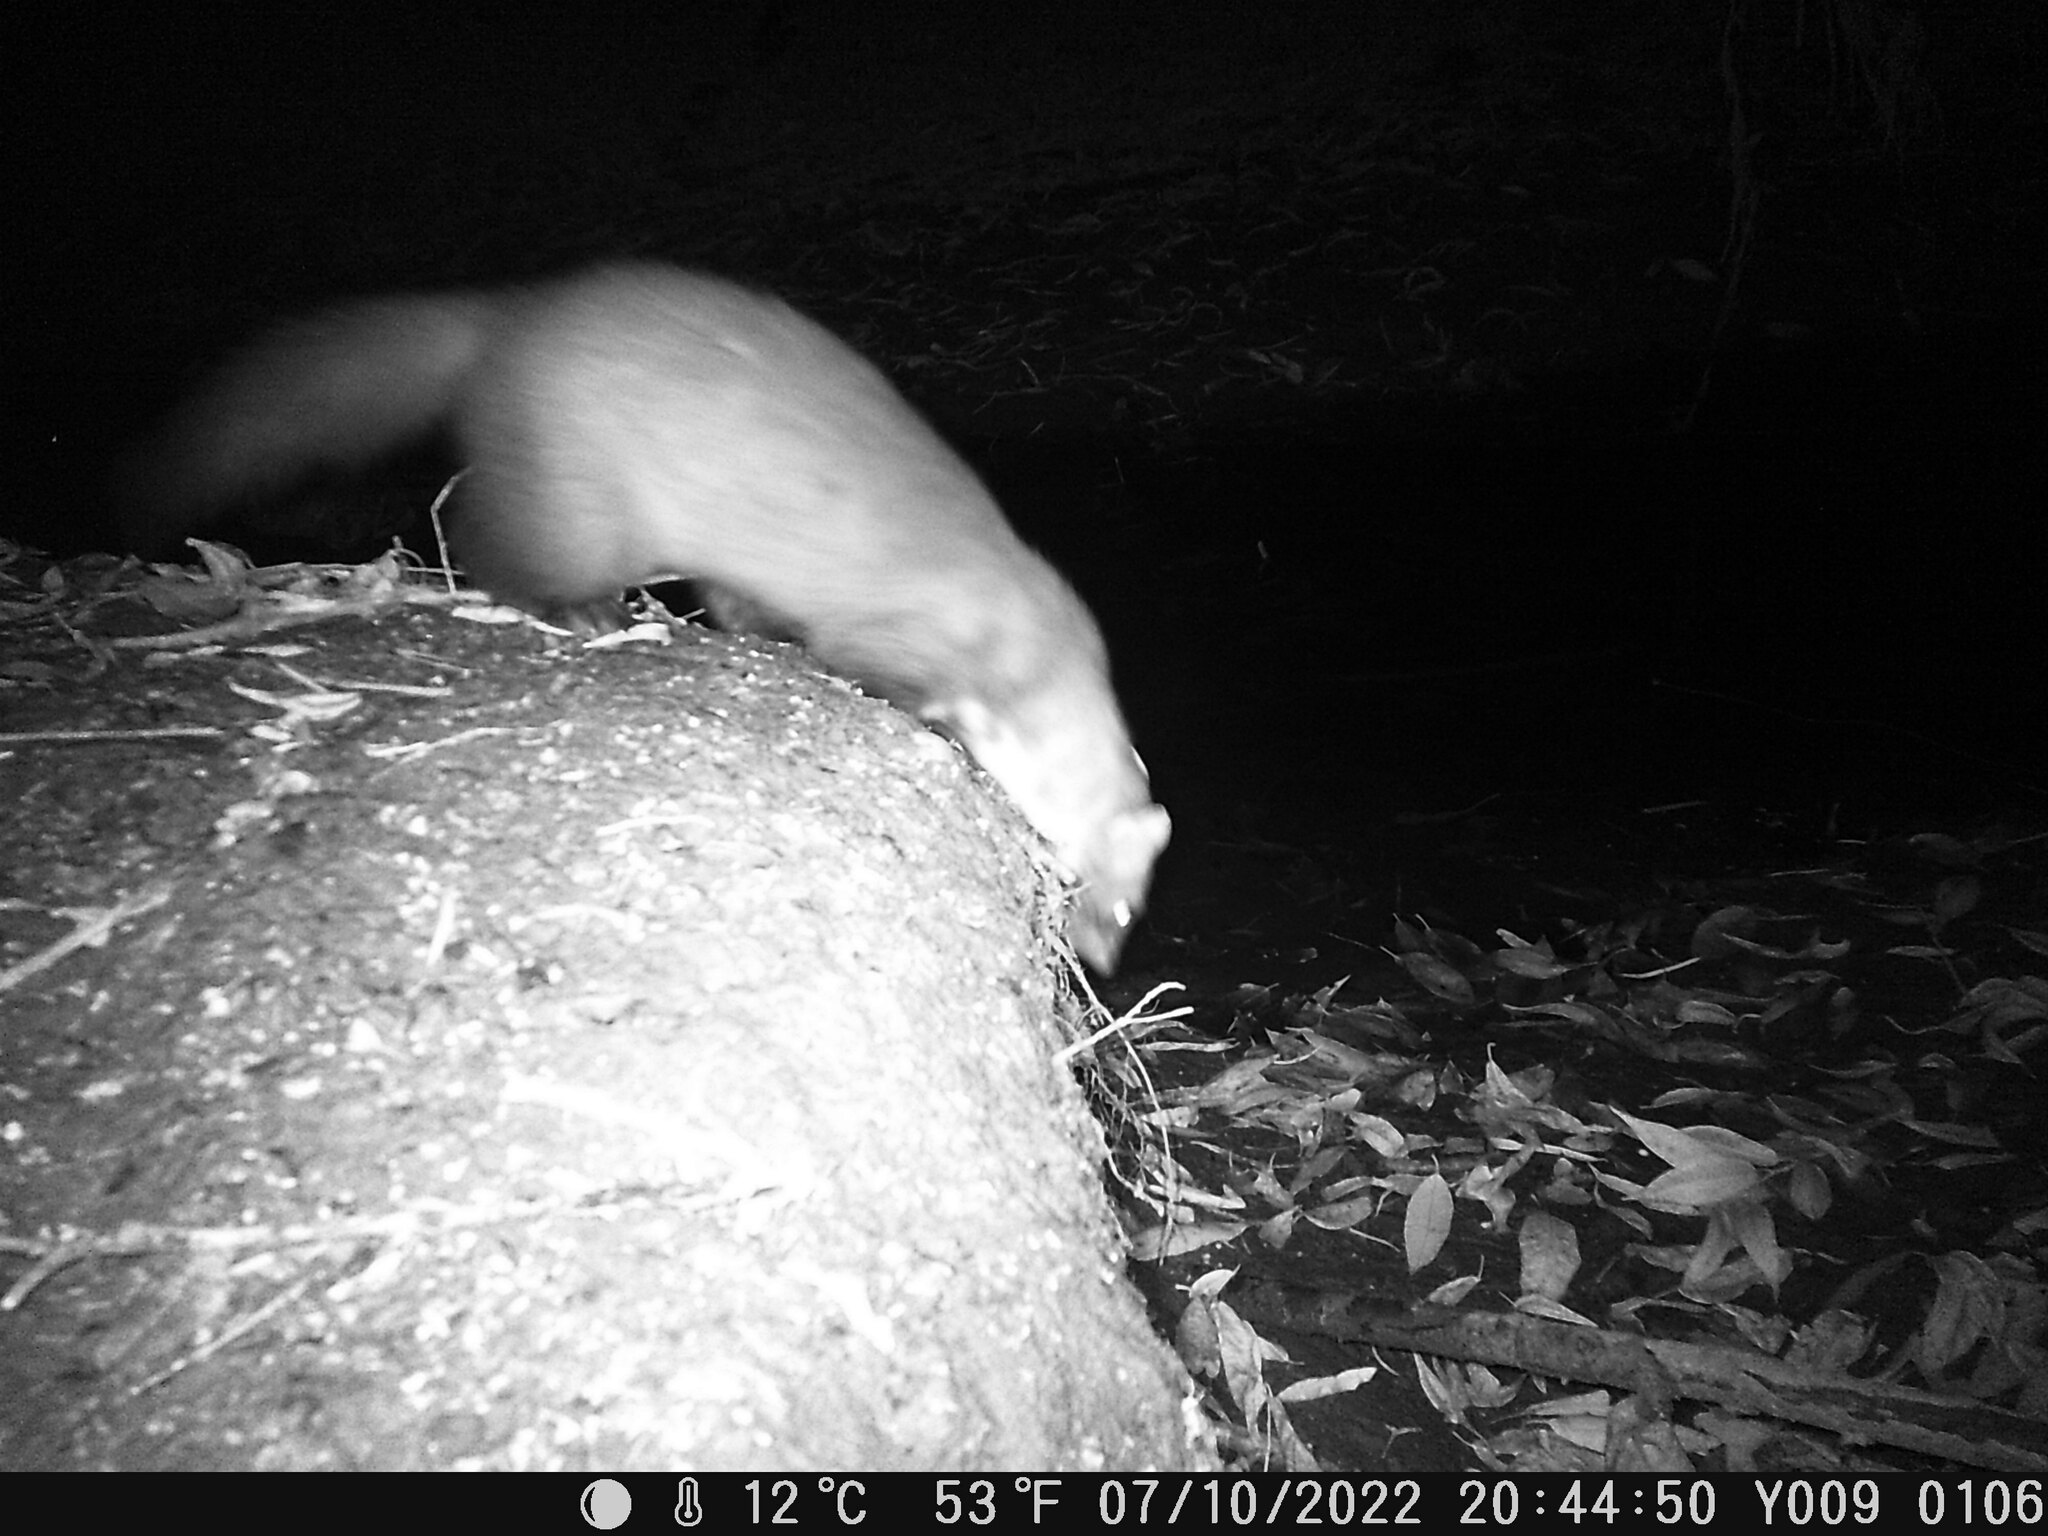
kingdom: Animalia
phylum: Chordata
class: Mammalia
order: Carnivora
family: Mustelidae
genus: Martes
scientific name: Martes martes
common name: European pine marten
